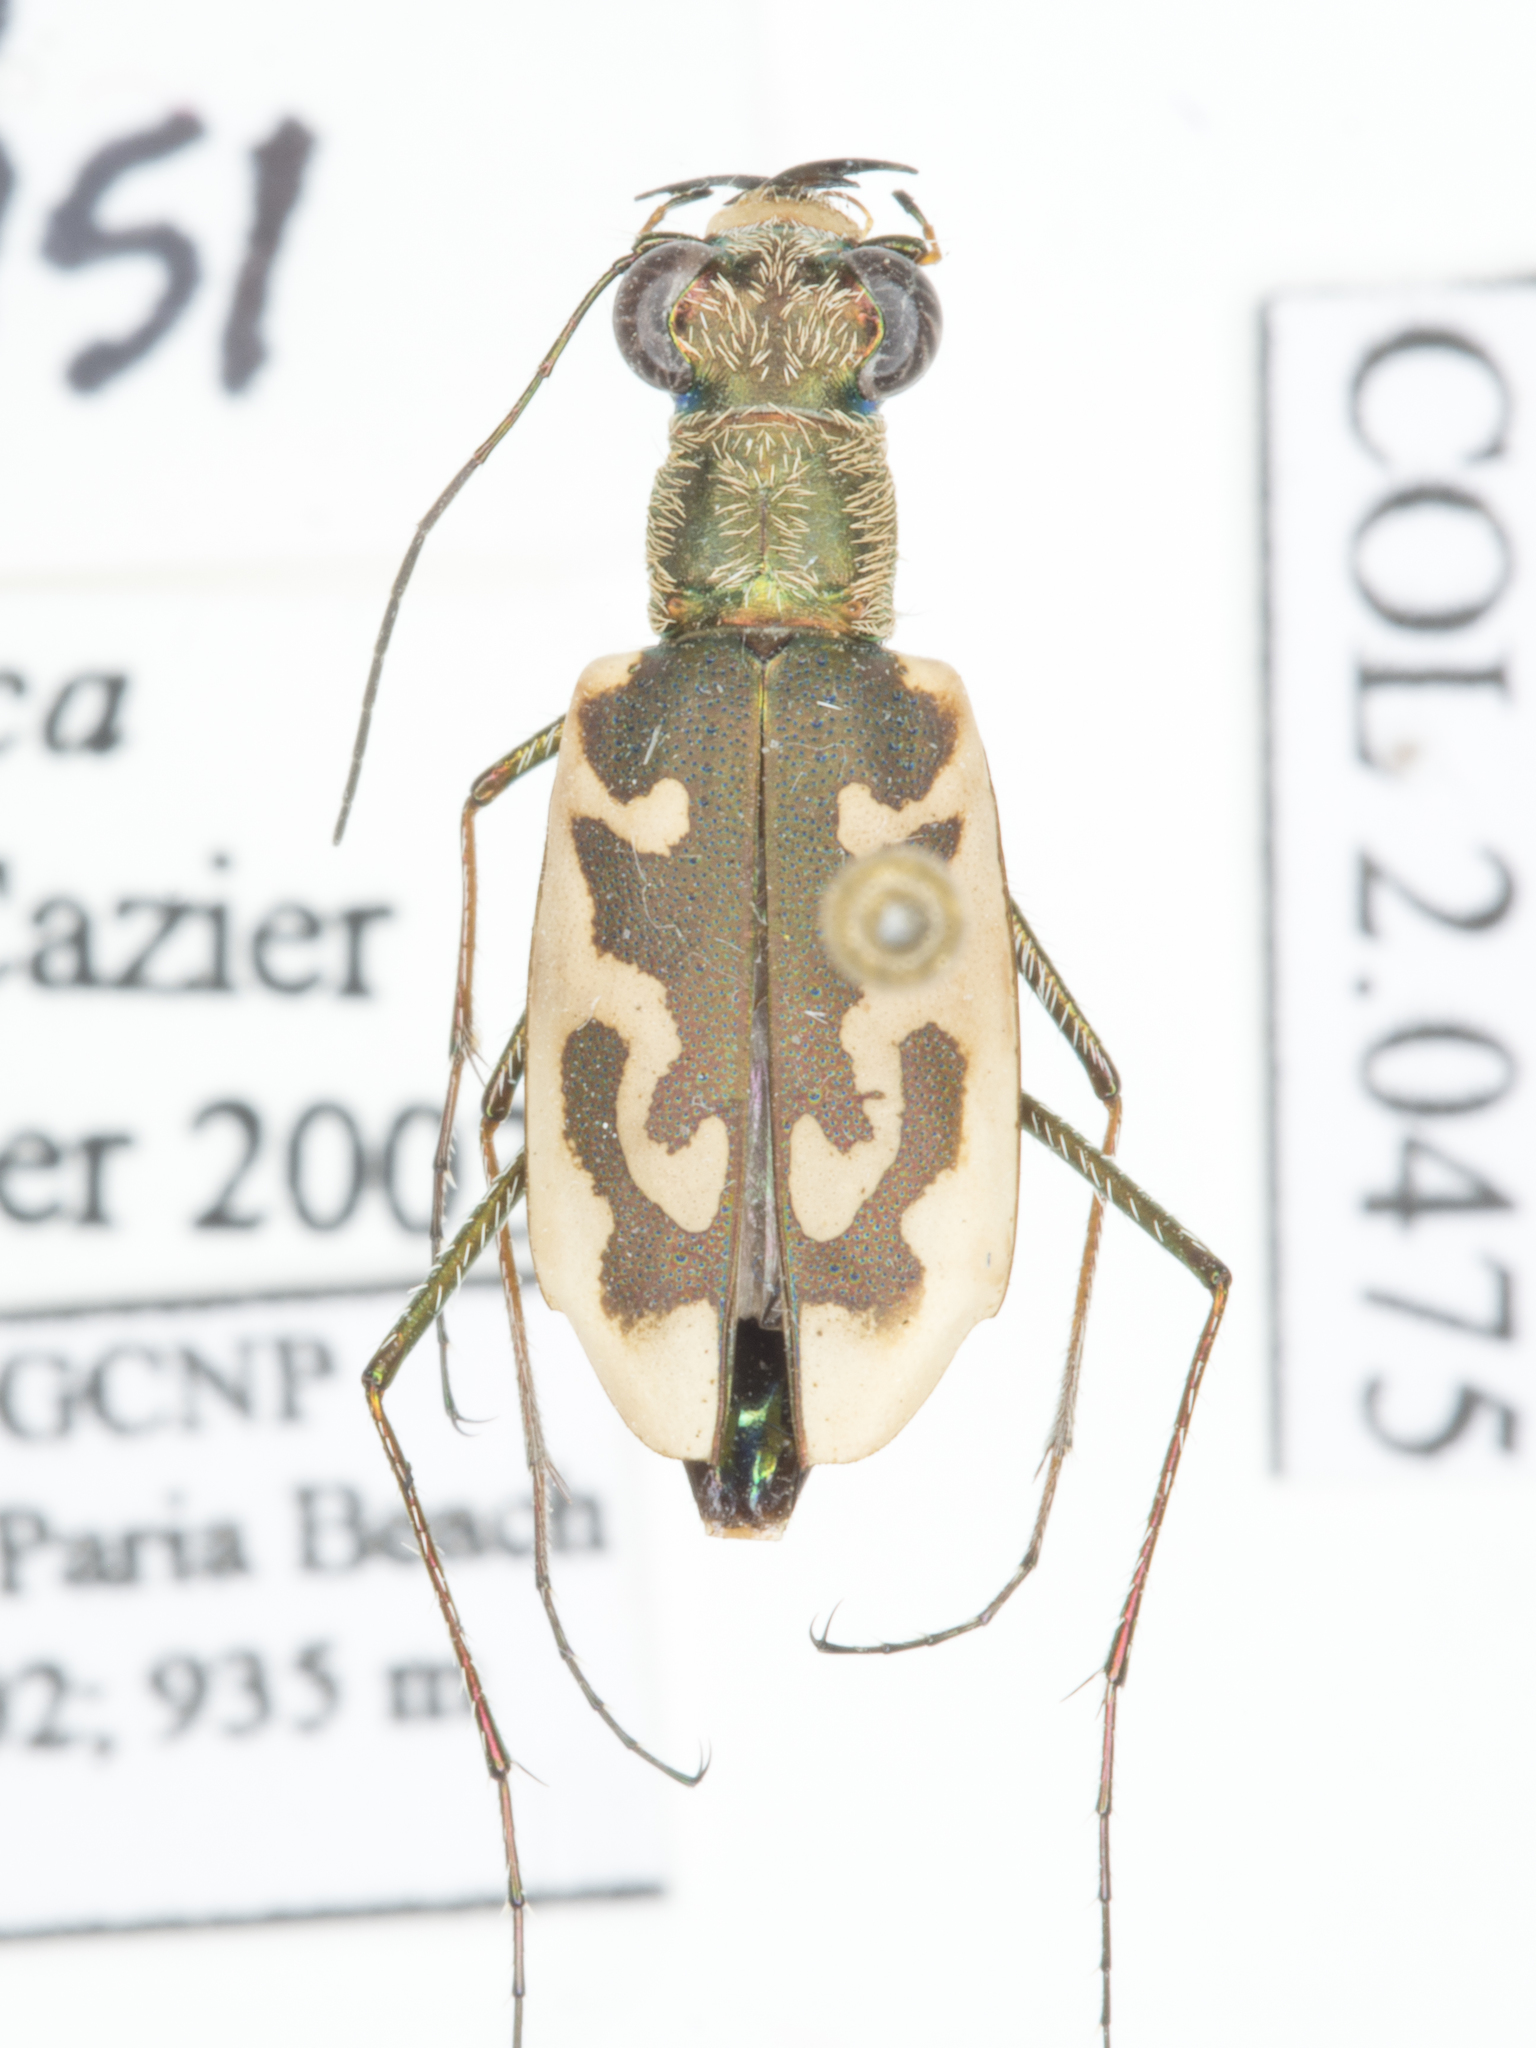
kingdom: Animalia
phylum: Arthropoda
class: Insecta
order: Coleoptera
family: Carabidae
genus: Ellipsoptera
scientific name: Ellipsoptera nevadica
